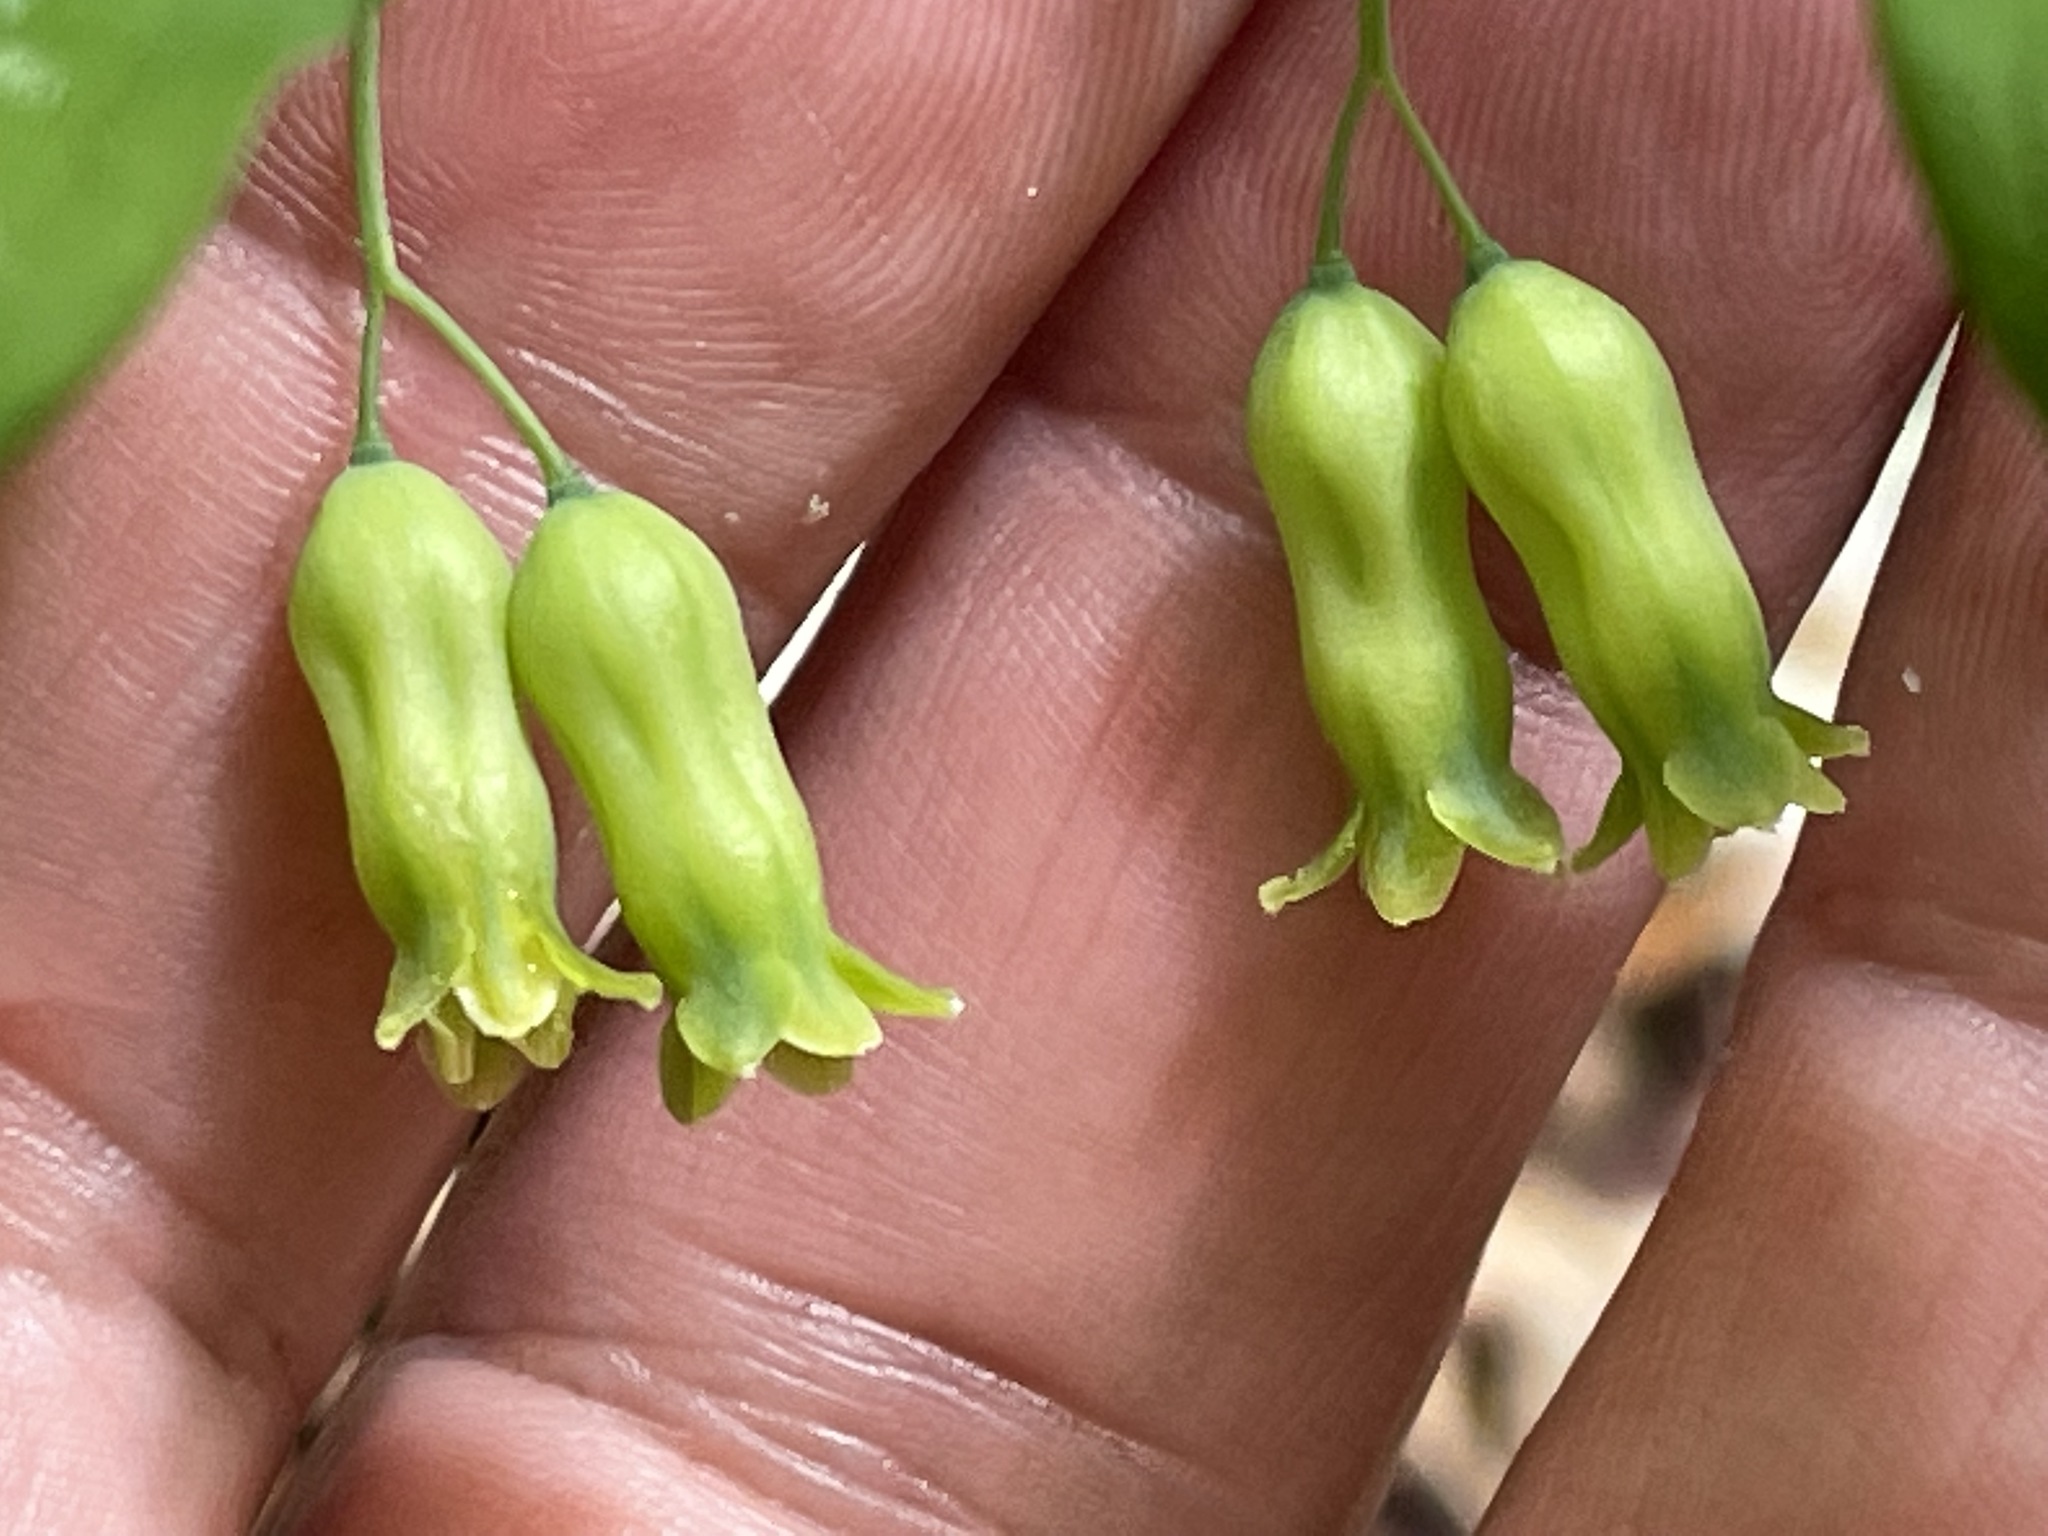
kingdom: Plantae
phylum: Tracheophyta
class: Liliopsida
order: Asparagales
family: Asparagaceae
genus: Polygonatum
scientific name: Polygonatum pubescens
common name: Downy solomon's seal
